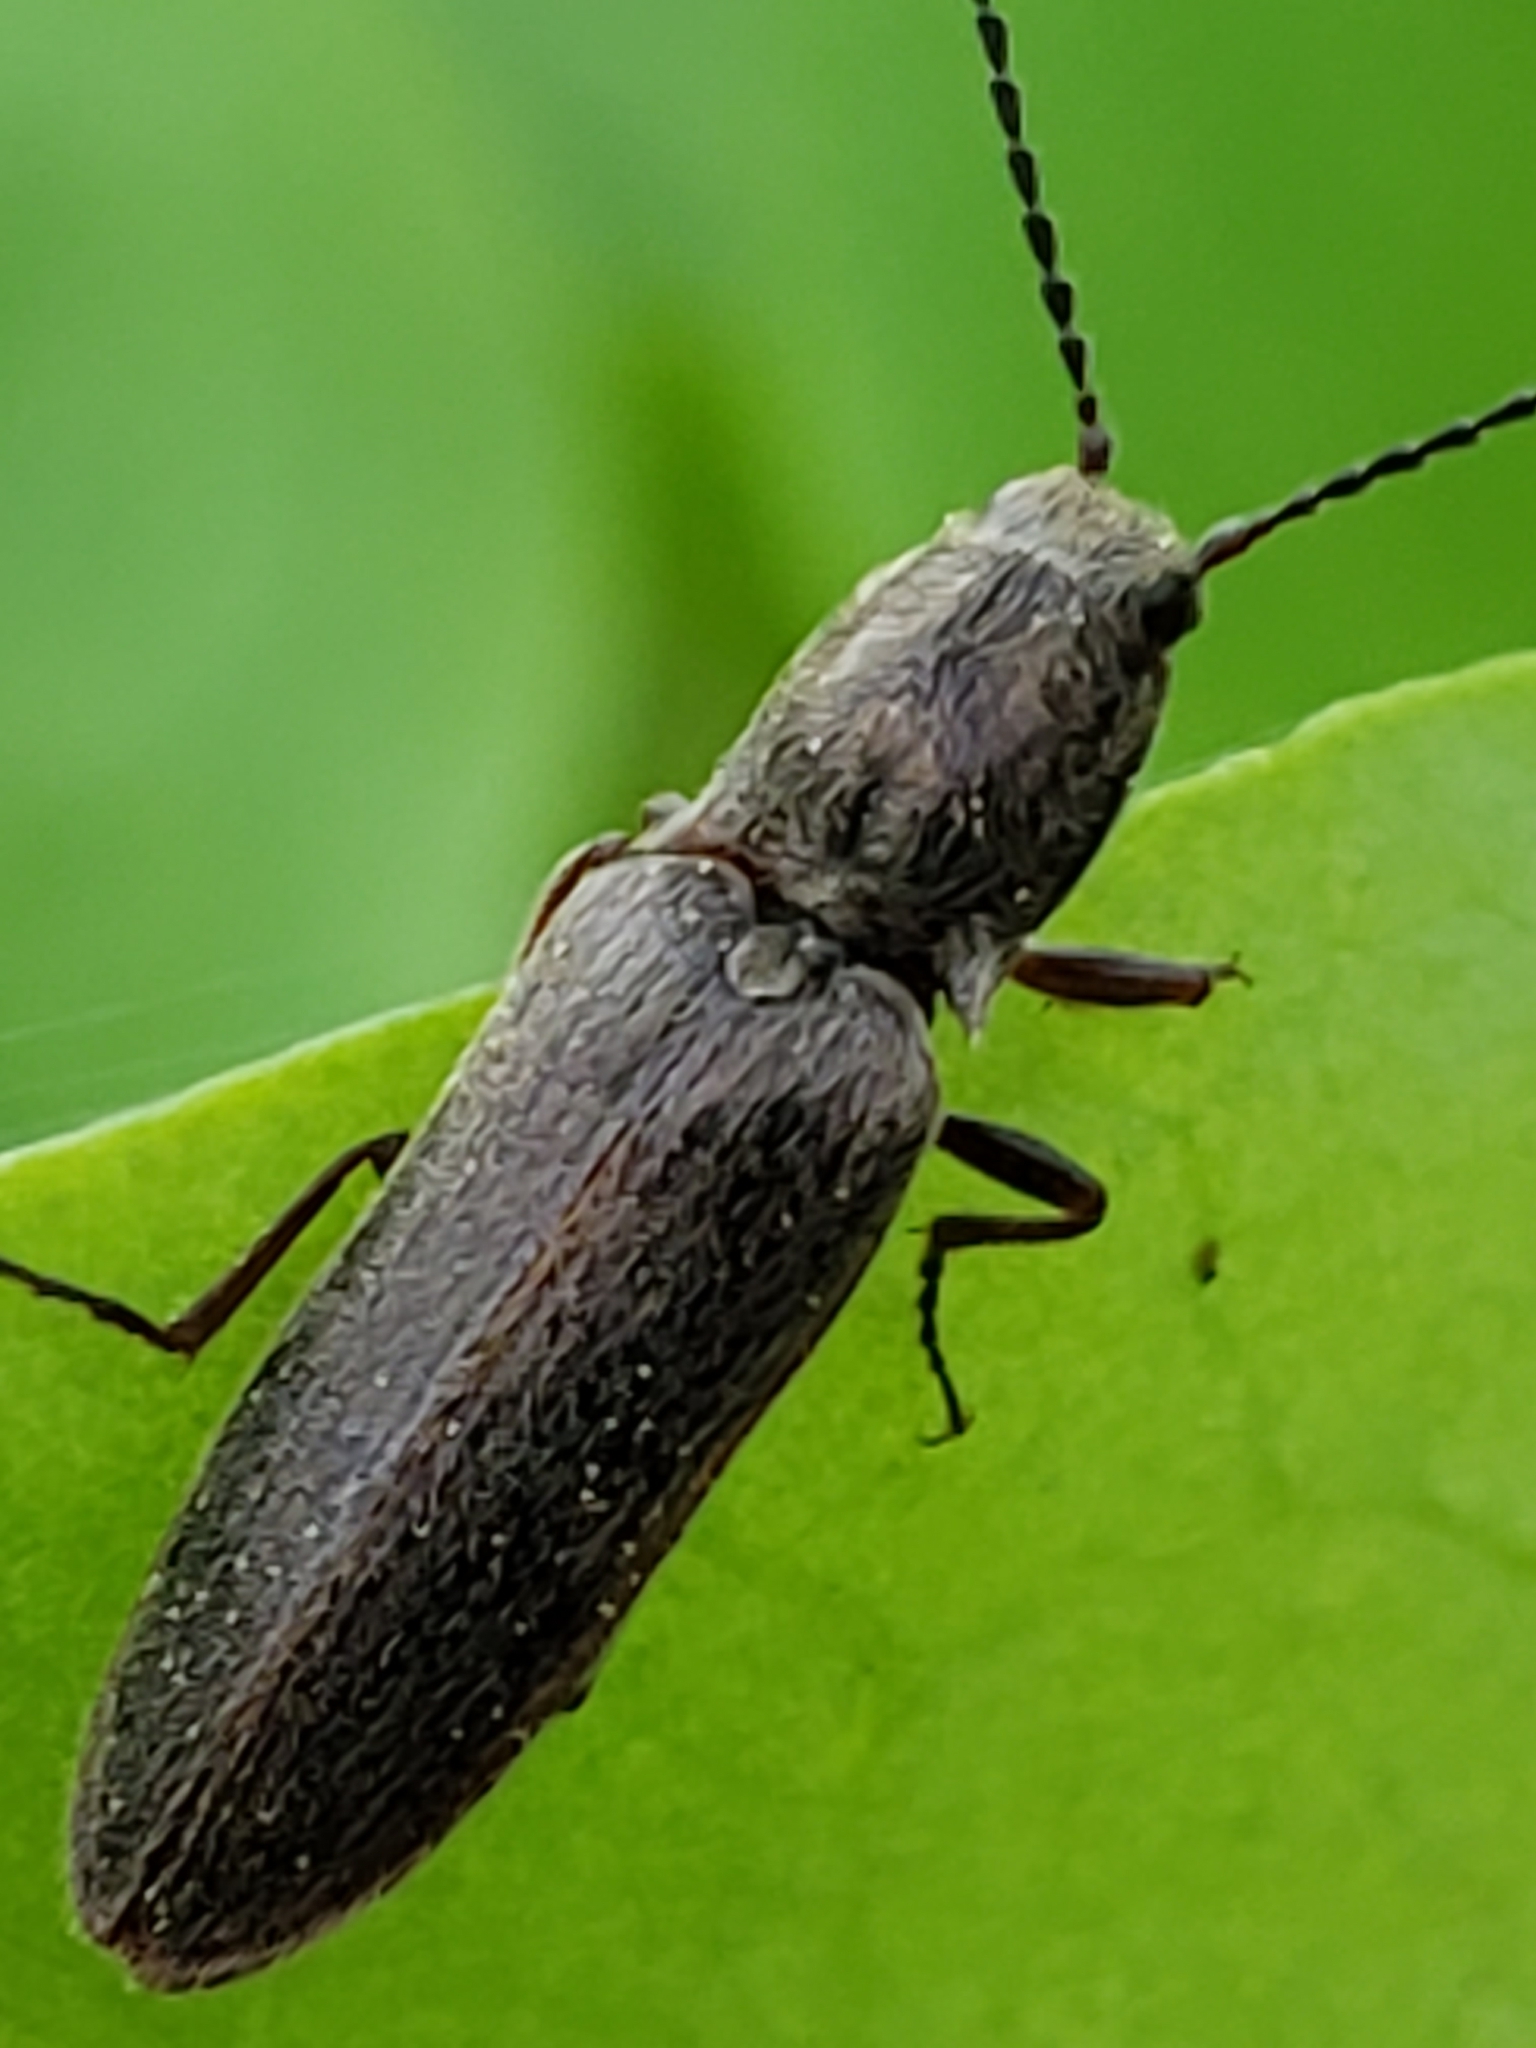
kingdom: Animalia
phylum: Arthropoda
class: Insecta
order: Coleoptera
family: Elateridae
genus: Sylvanelater
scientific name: Sylvanelater cylindriformis
